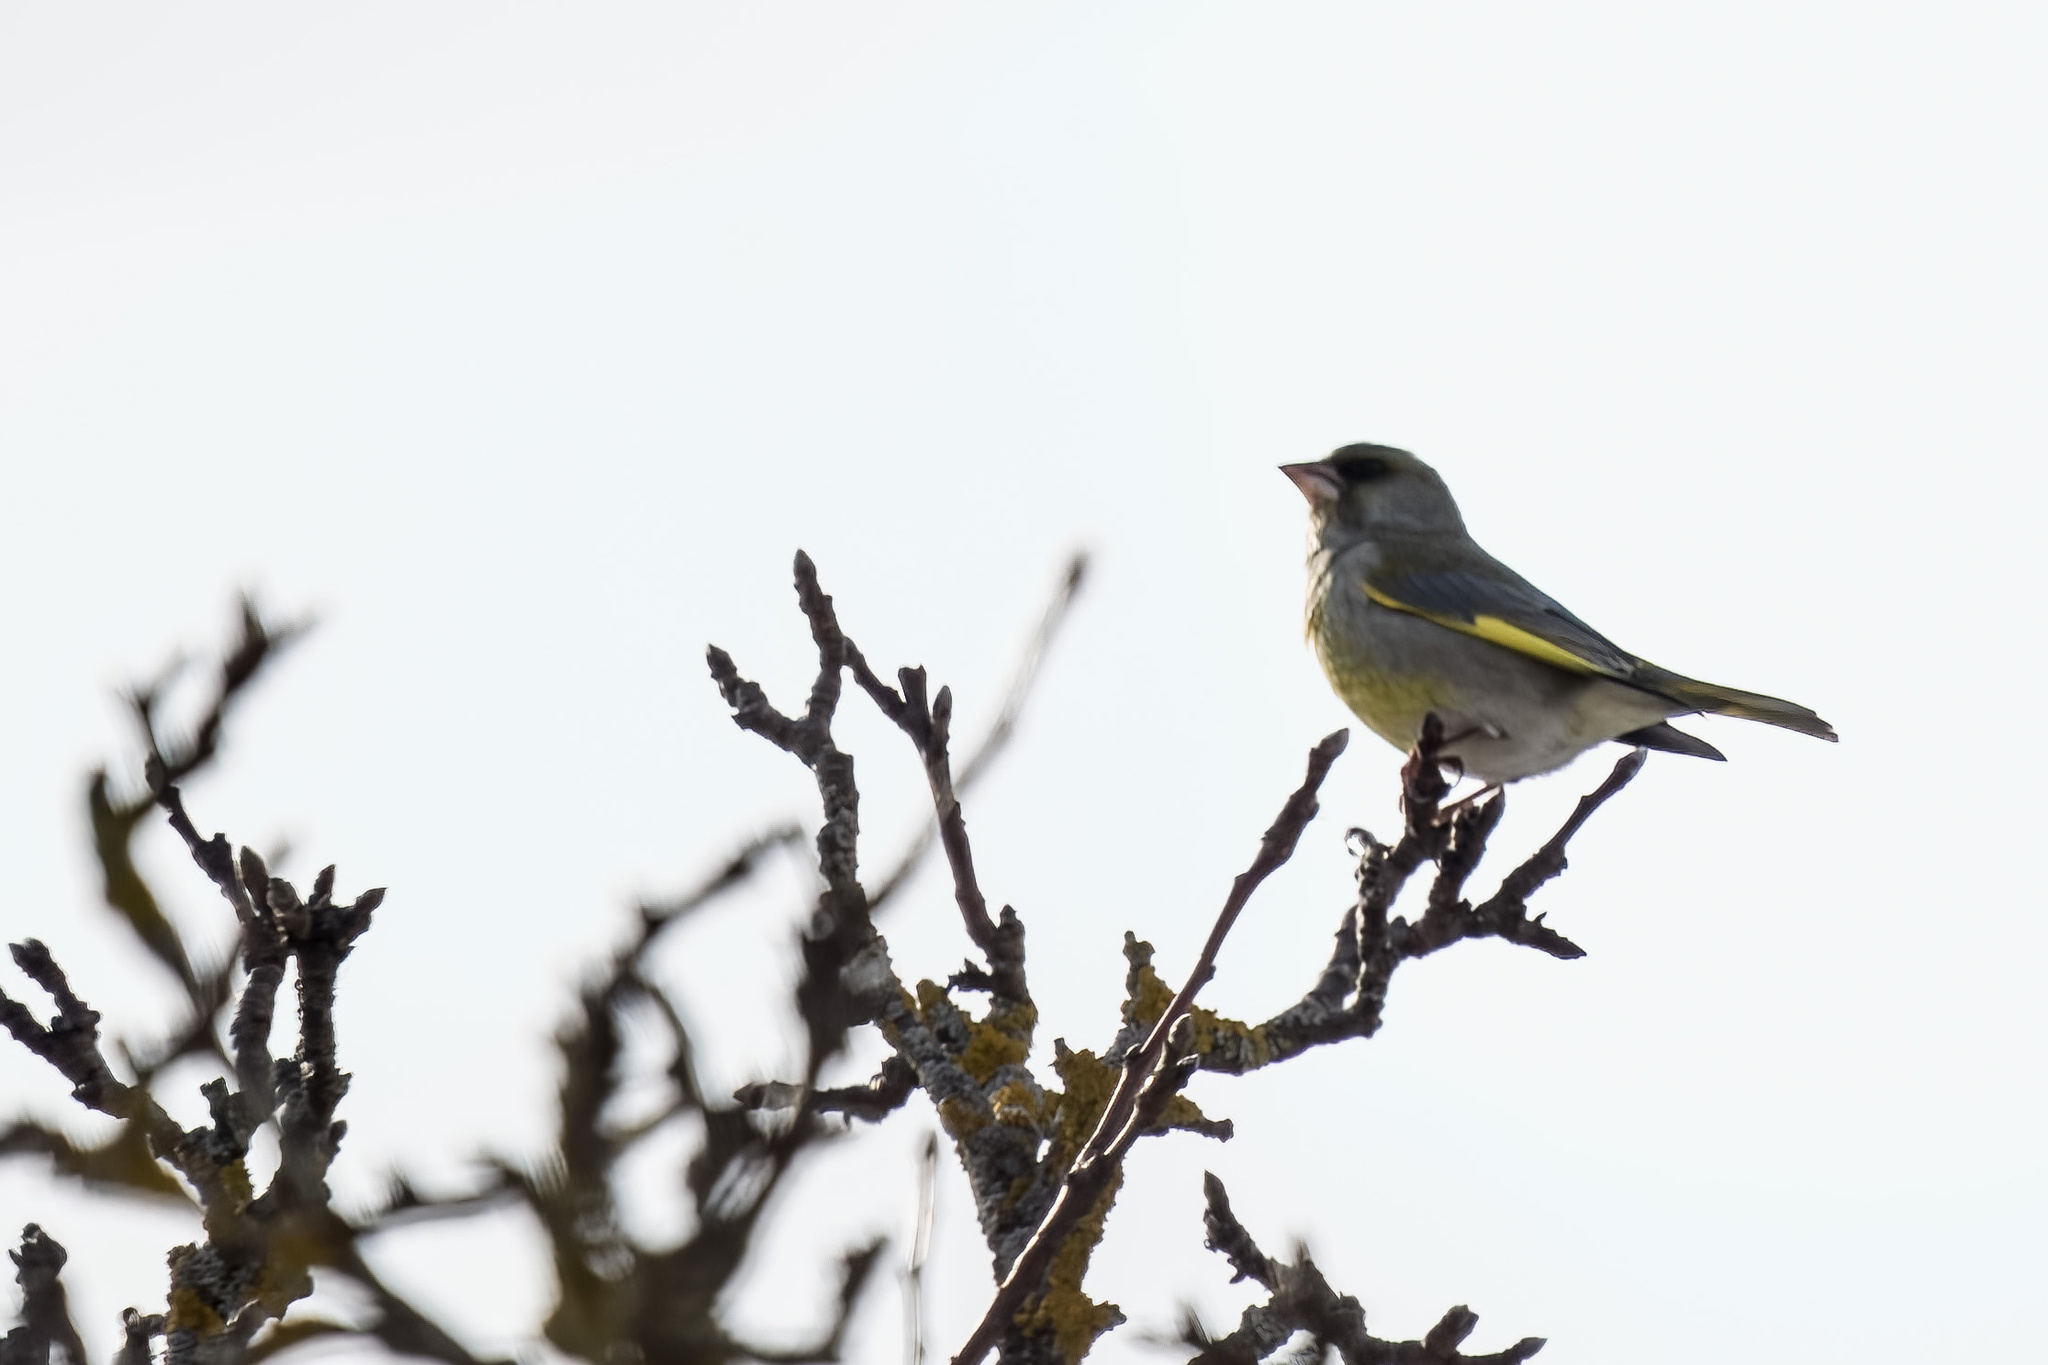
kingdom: Plantae
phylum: Tracheophyta
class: Liliopsida
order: Poales
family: Poaceae
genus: Chloris
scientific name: Chloris chloris
